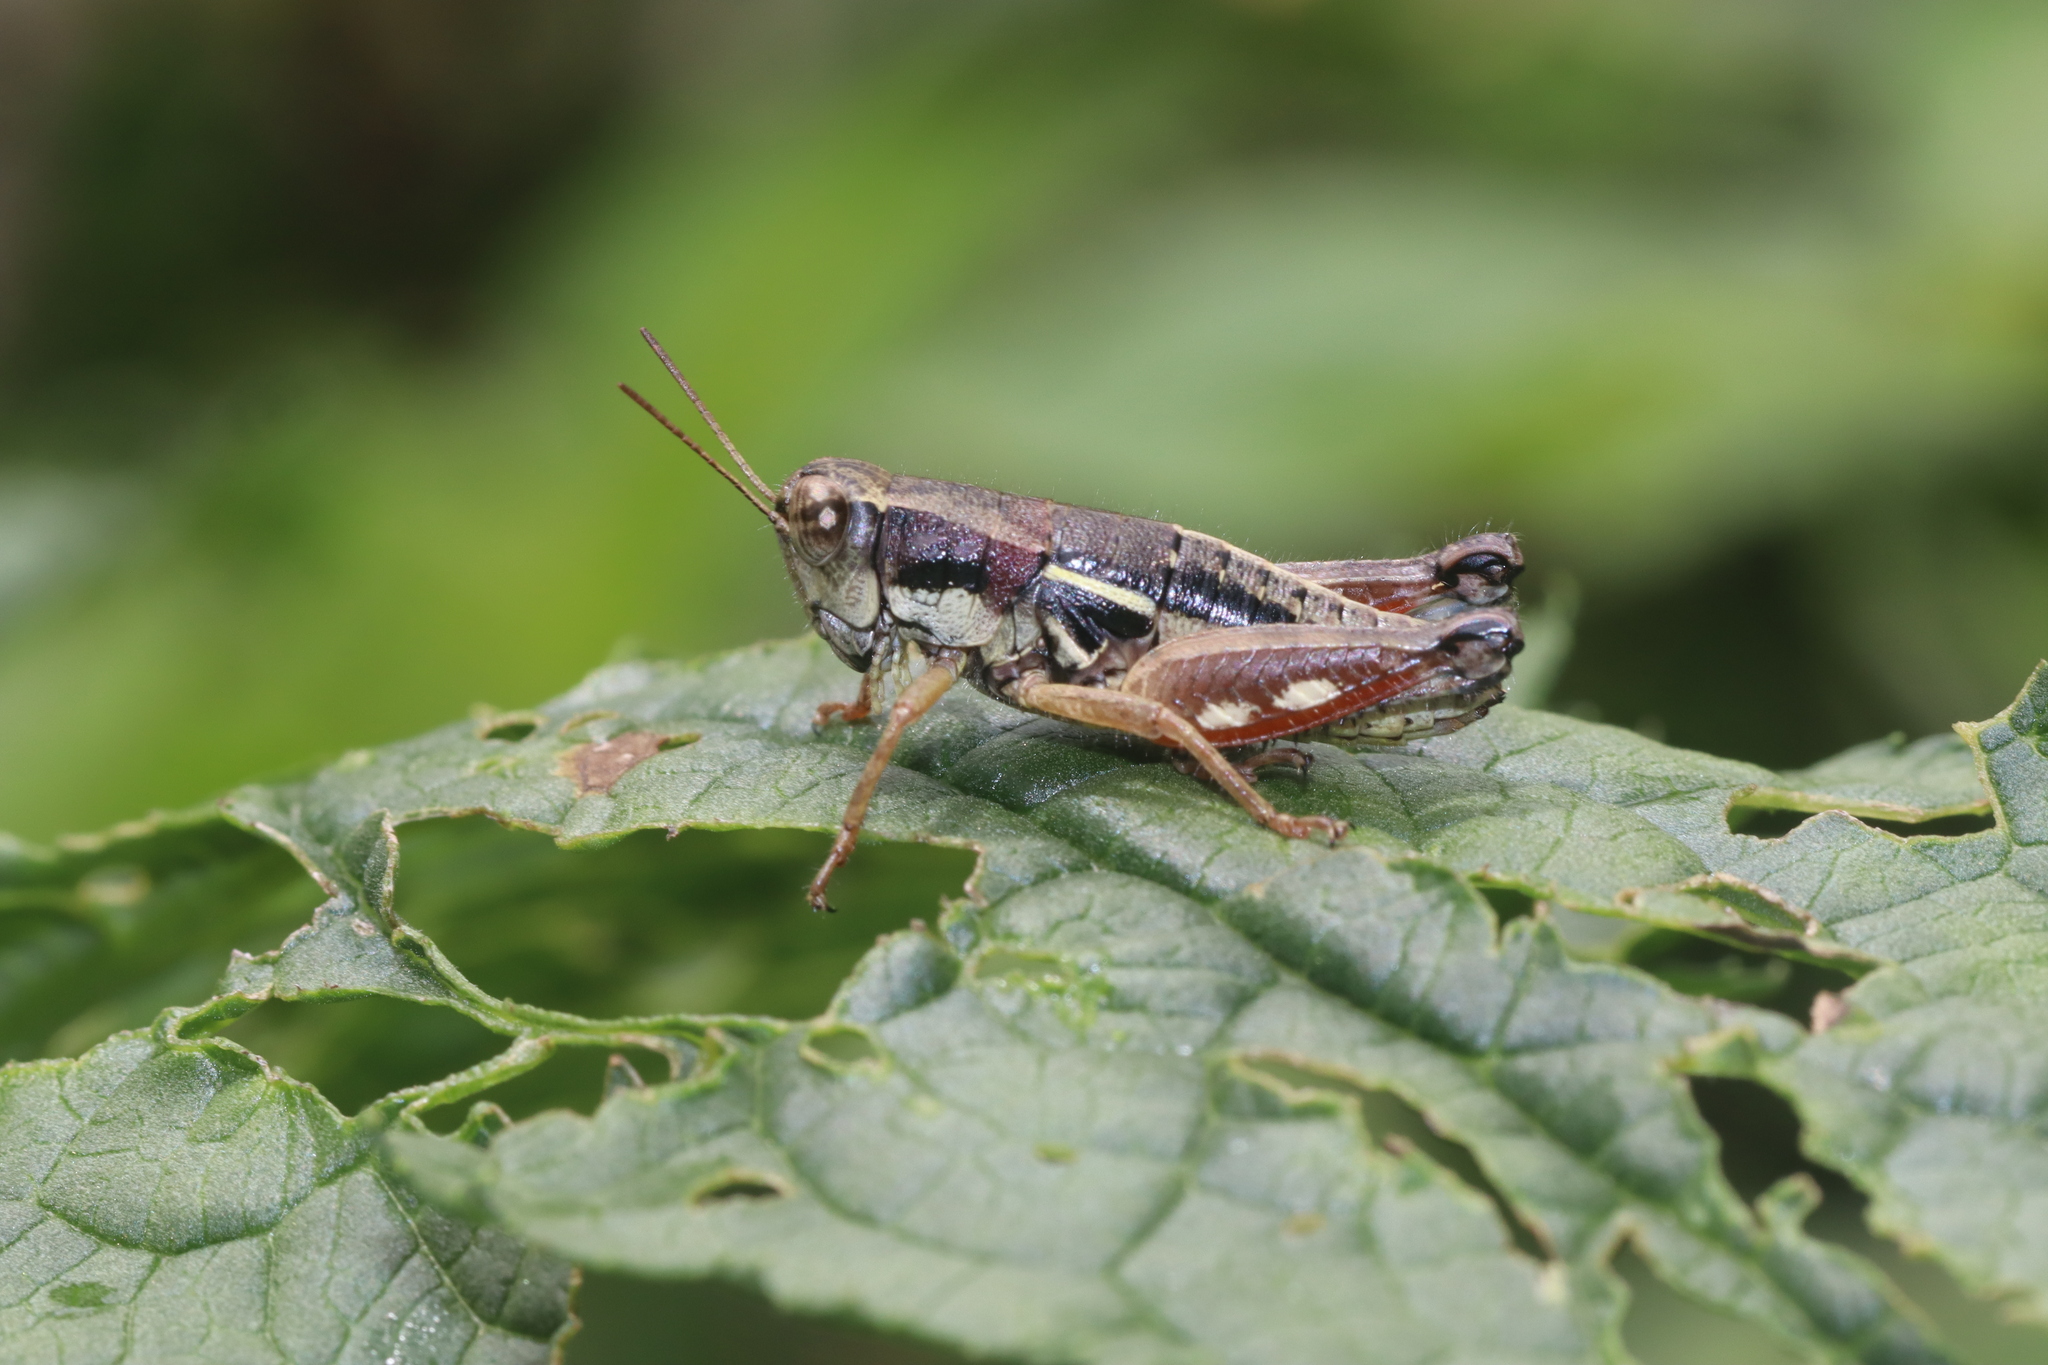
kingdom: Animalia
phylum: Arthropoda
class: Insecta
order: Orthoptera
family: Acrididae
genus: Paraconophyma
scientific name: Paraconophyma scabra
